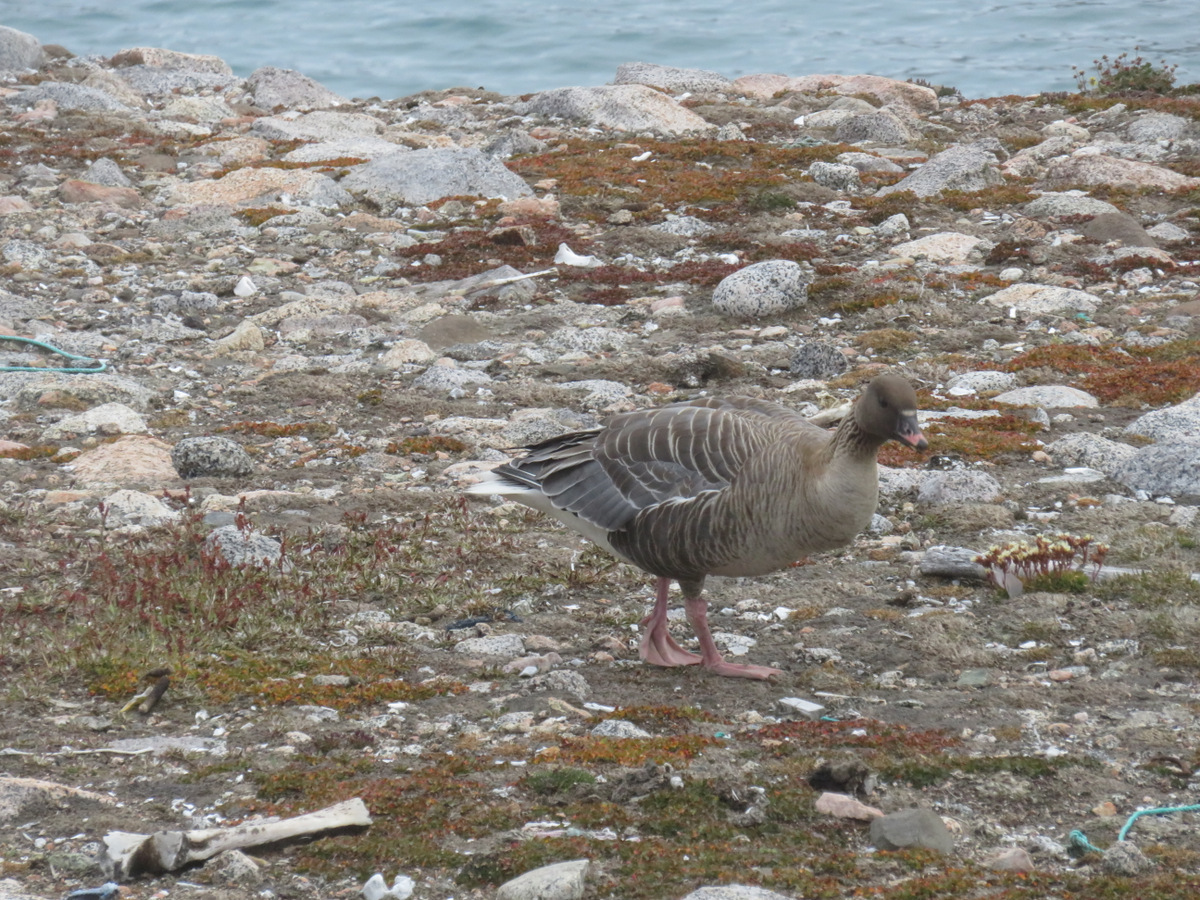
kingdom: Animalia
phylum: Chordata
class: Aves
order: Anseriformes
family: Anatidae
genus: Anser
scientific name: Anser brachyrhynchus
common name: Pink-footed goose
